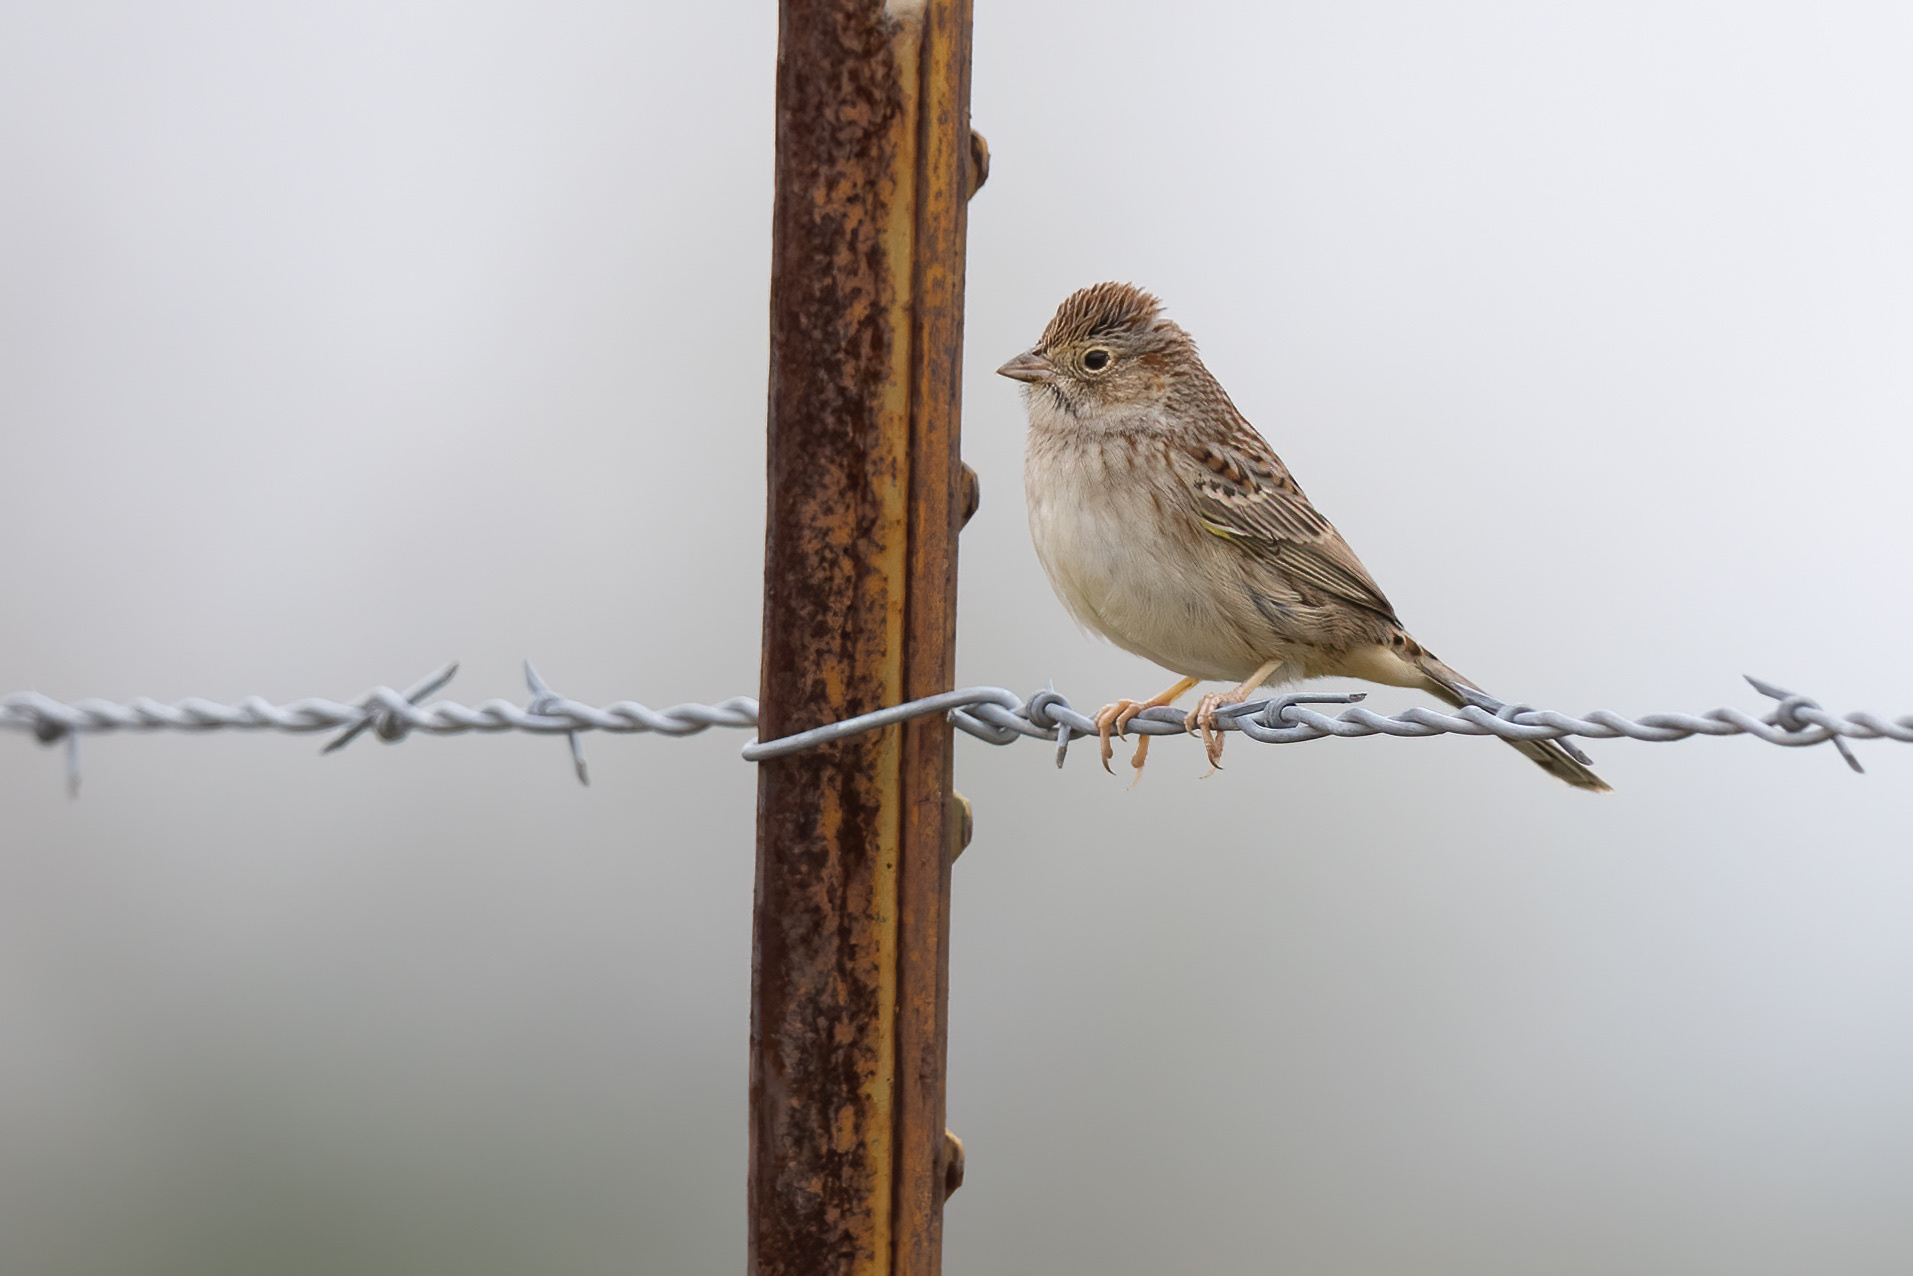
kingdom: Animalia
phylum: Chordata
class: Aves
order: Passeriformes
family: Passerellidae
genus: Peucaea
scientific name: Peucaea cassinii
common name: Cassin's sparrow
